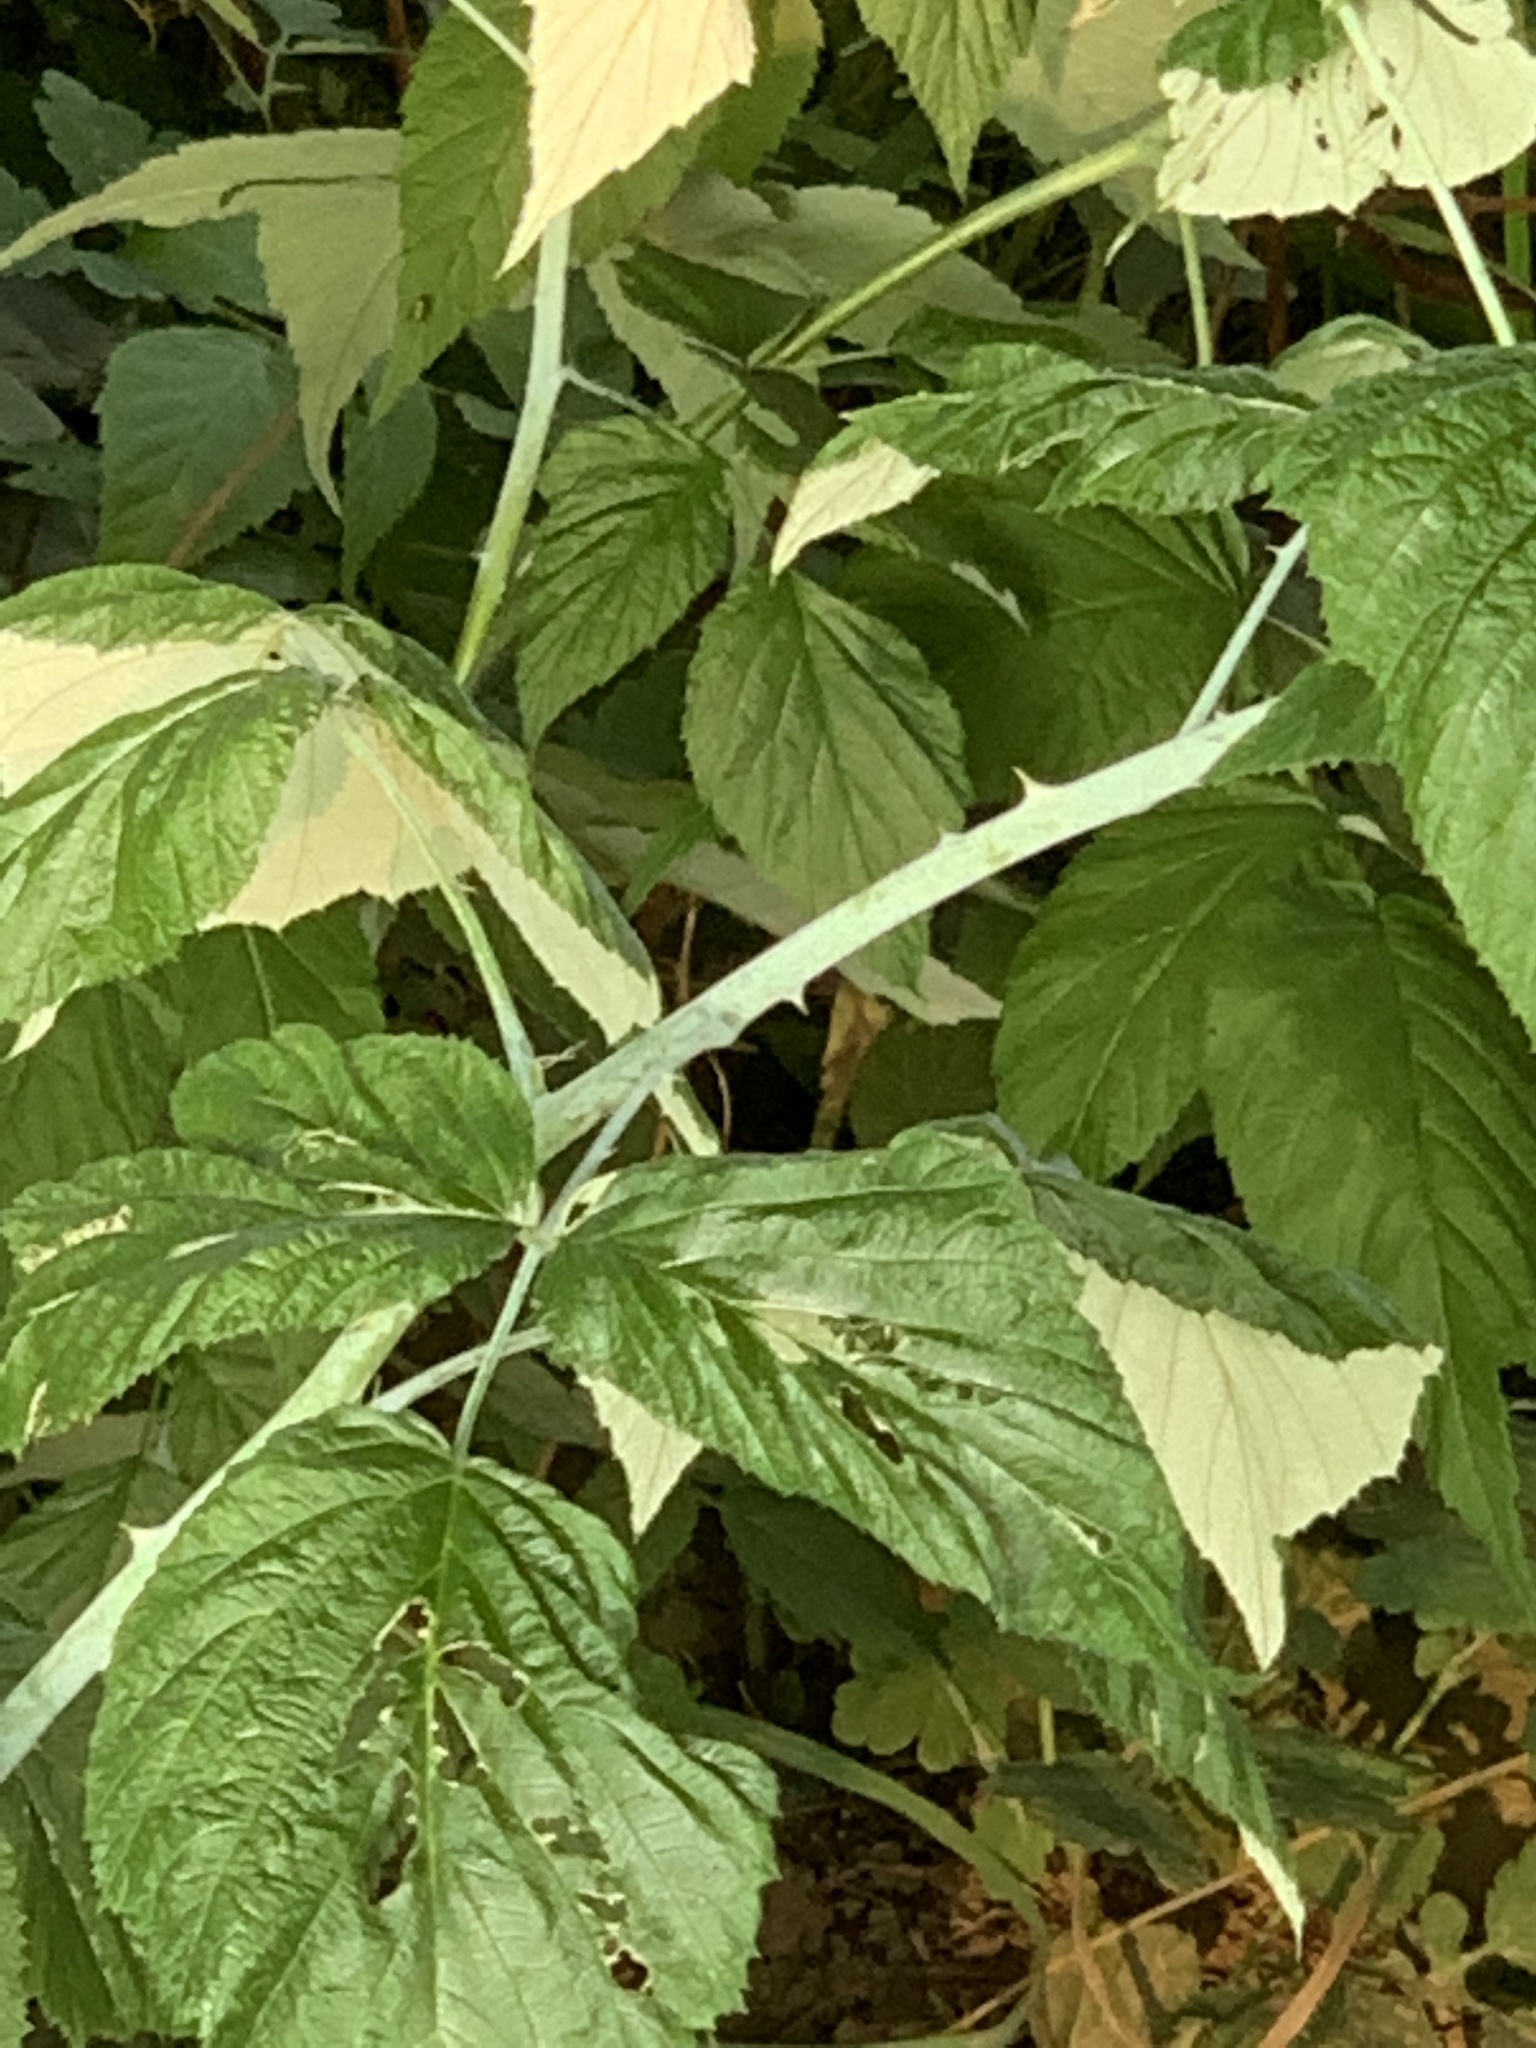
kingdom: Plantae
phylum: Tracheophyta
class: Magnoliopsida
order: Rosales
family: Rosaceae
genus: Rubus
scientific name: Rubus occidentalis
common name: Black raspberry
